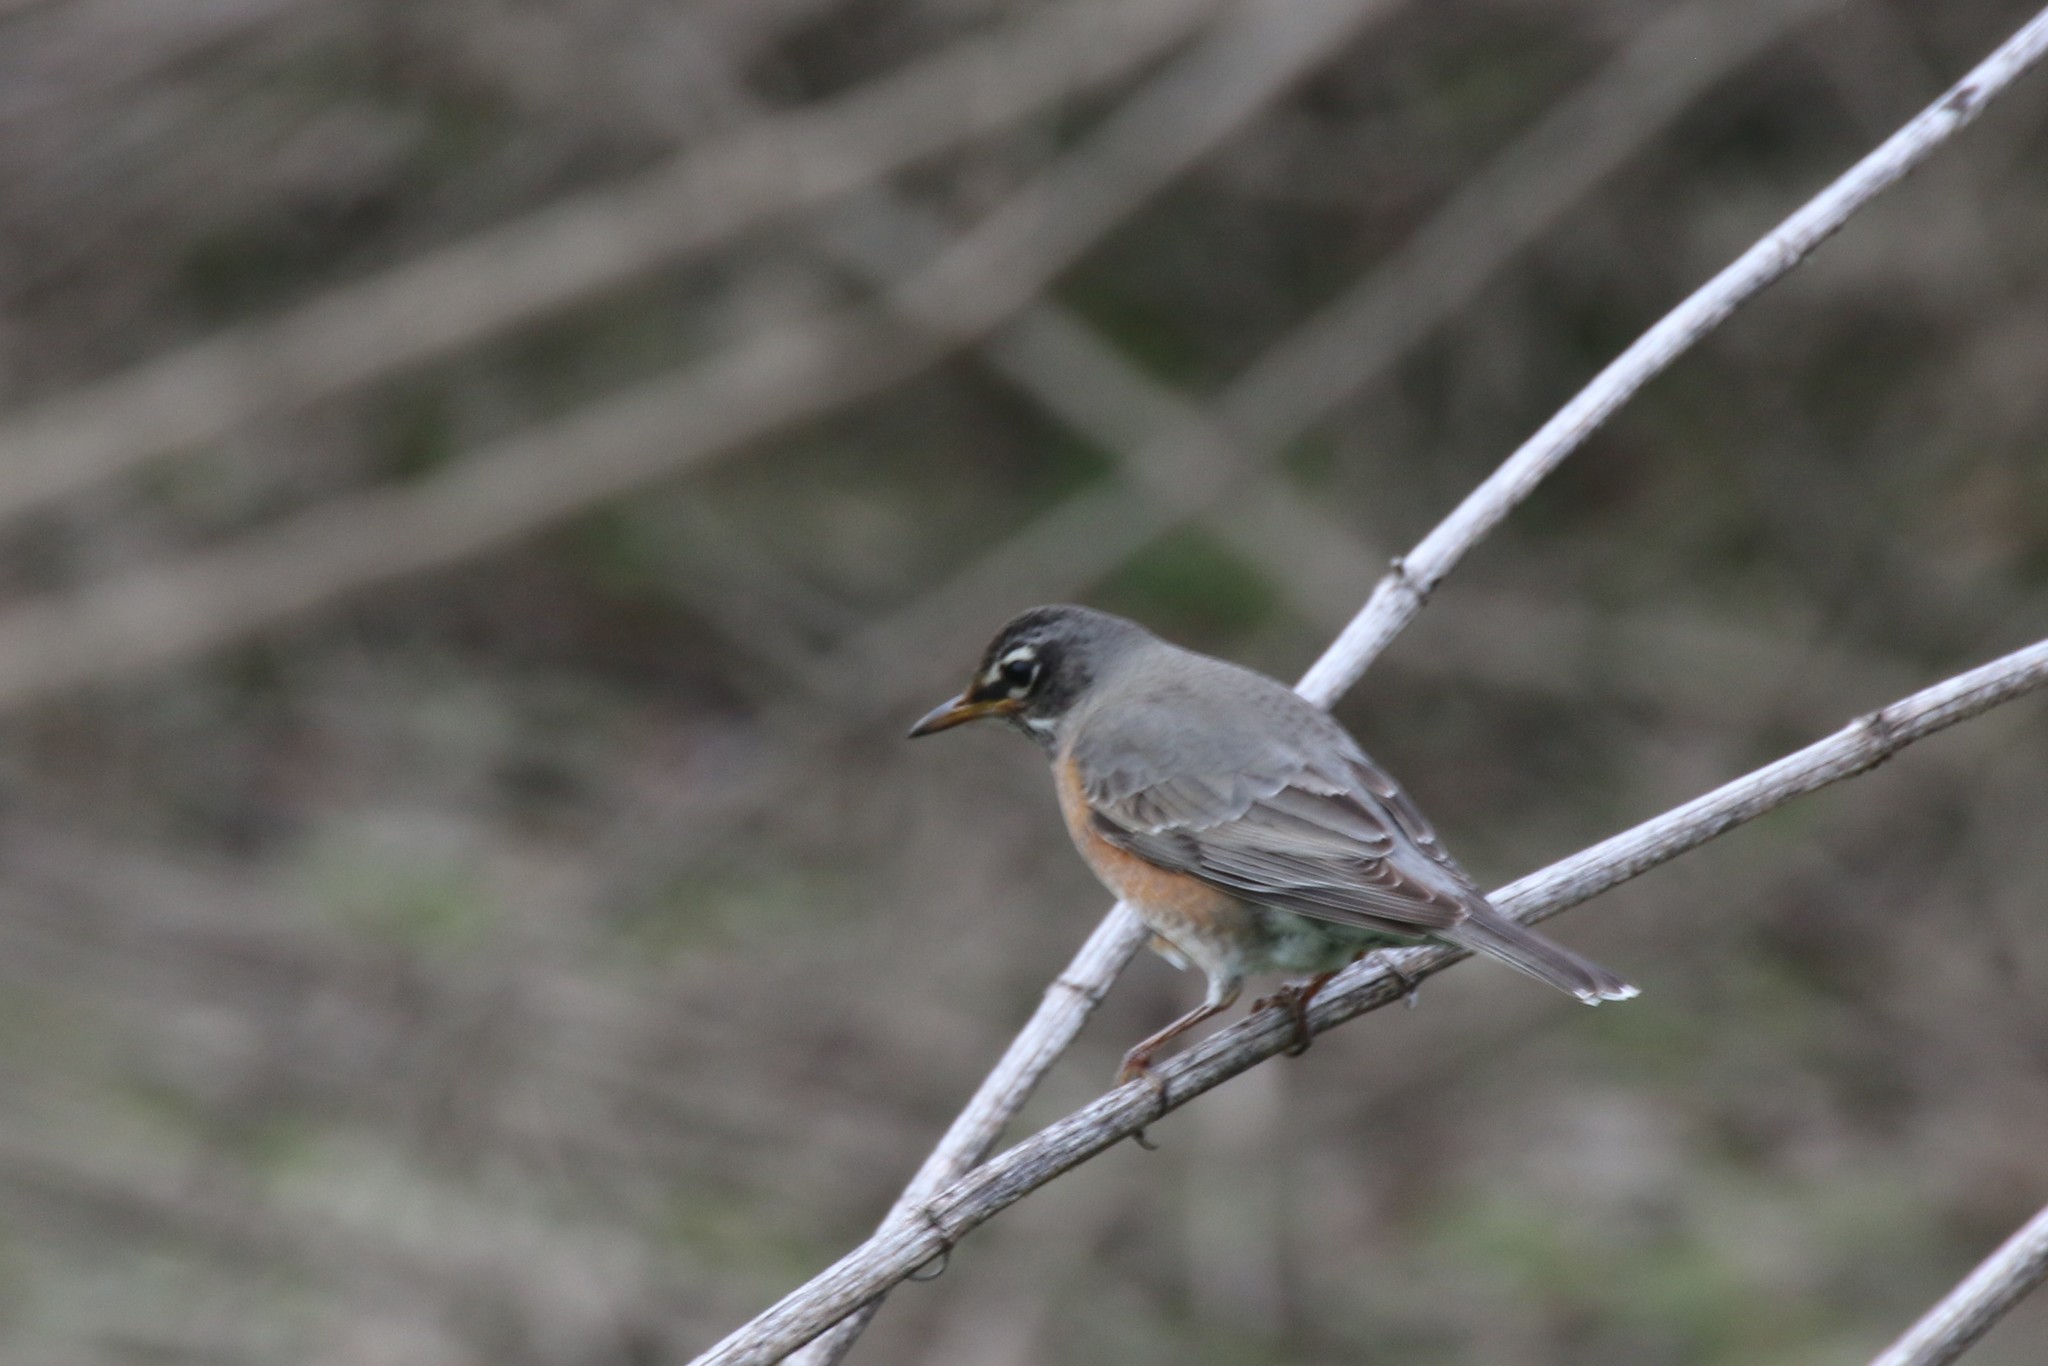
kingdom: Animalia
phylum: Chordata
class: Aves
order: Passeriformes
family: Turdidae
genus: Turdus
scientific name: Turdus migratorius
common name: American robin
